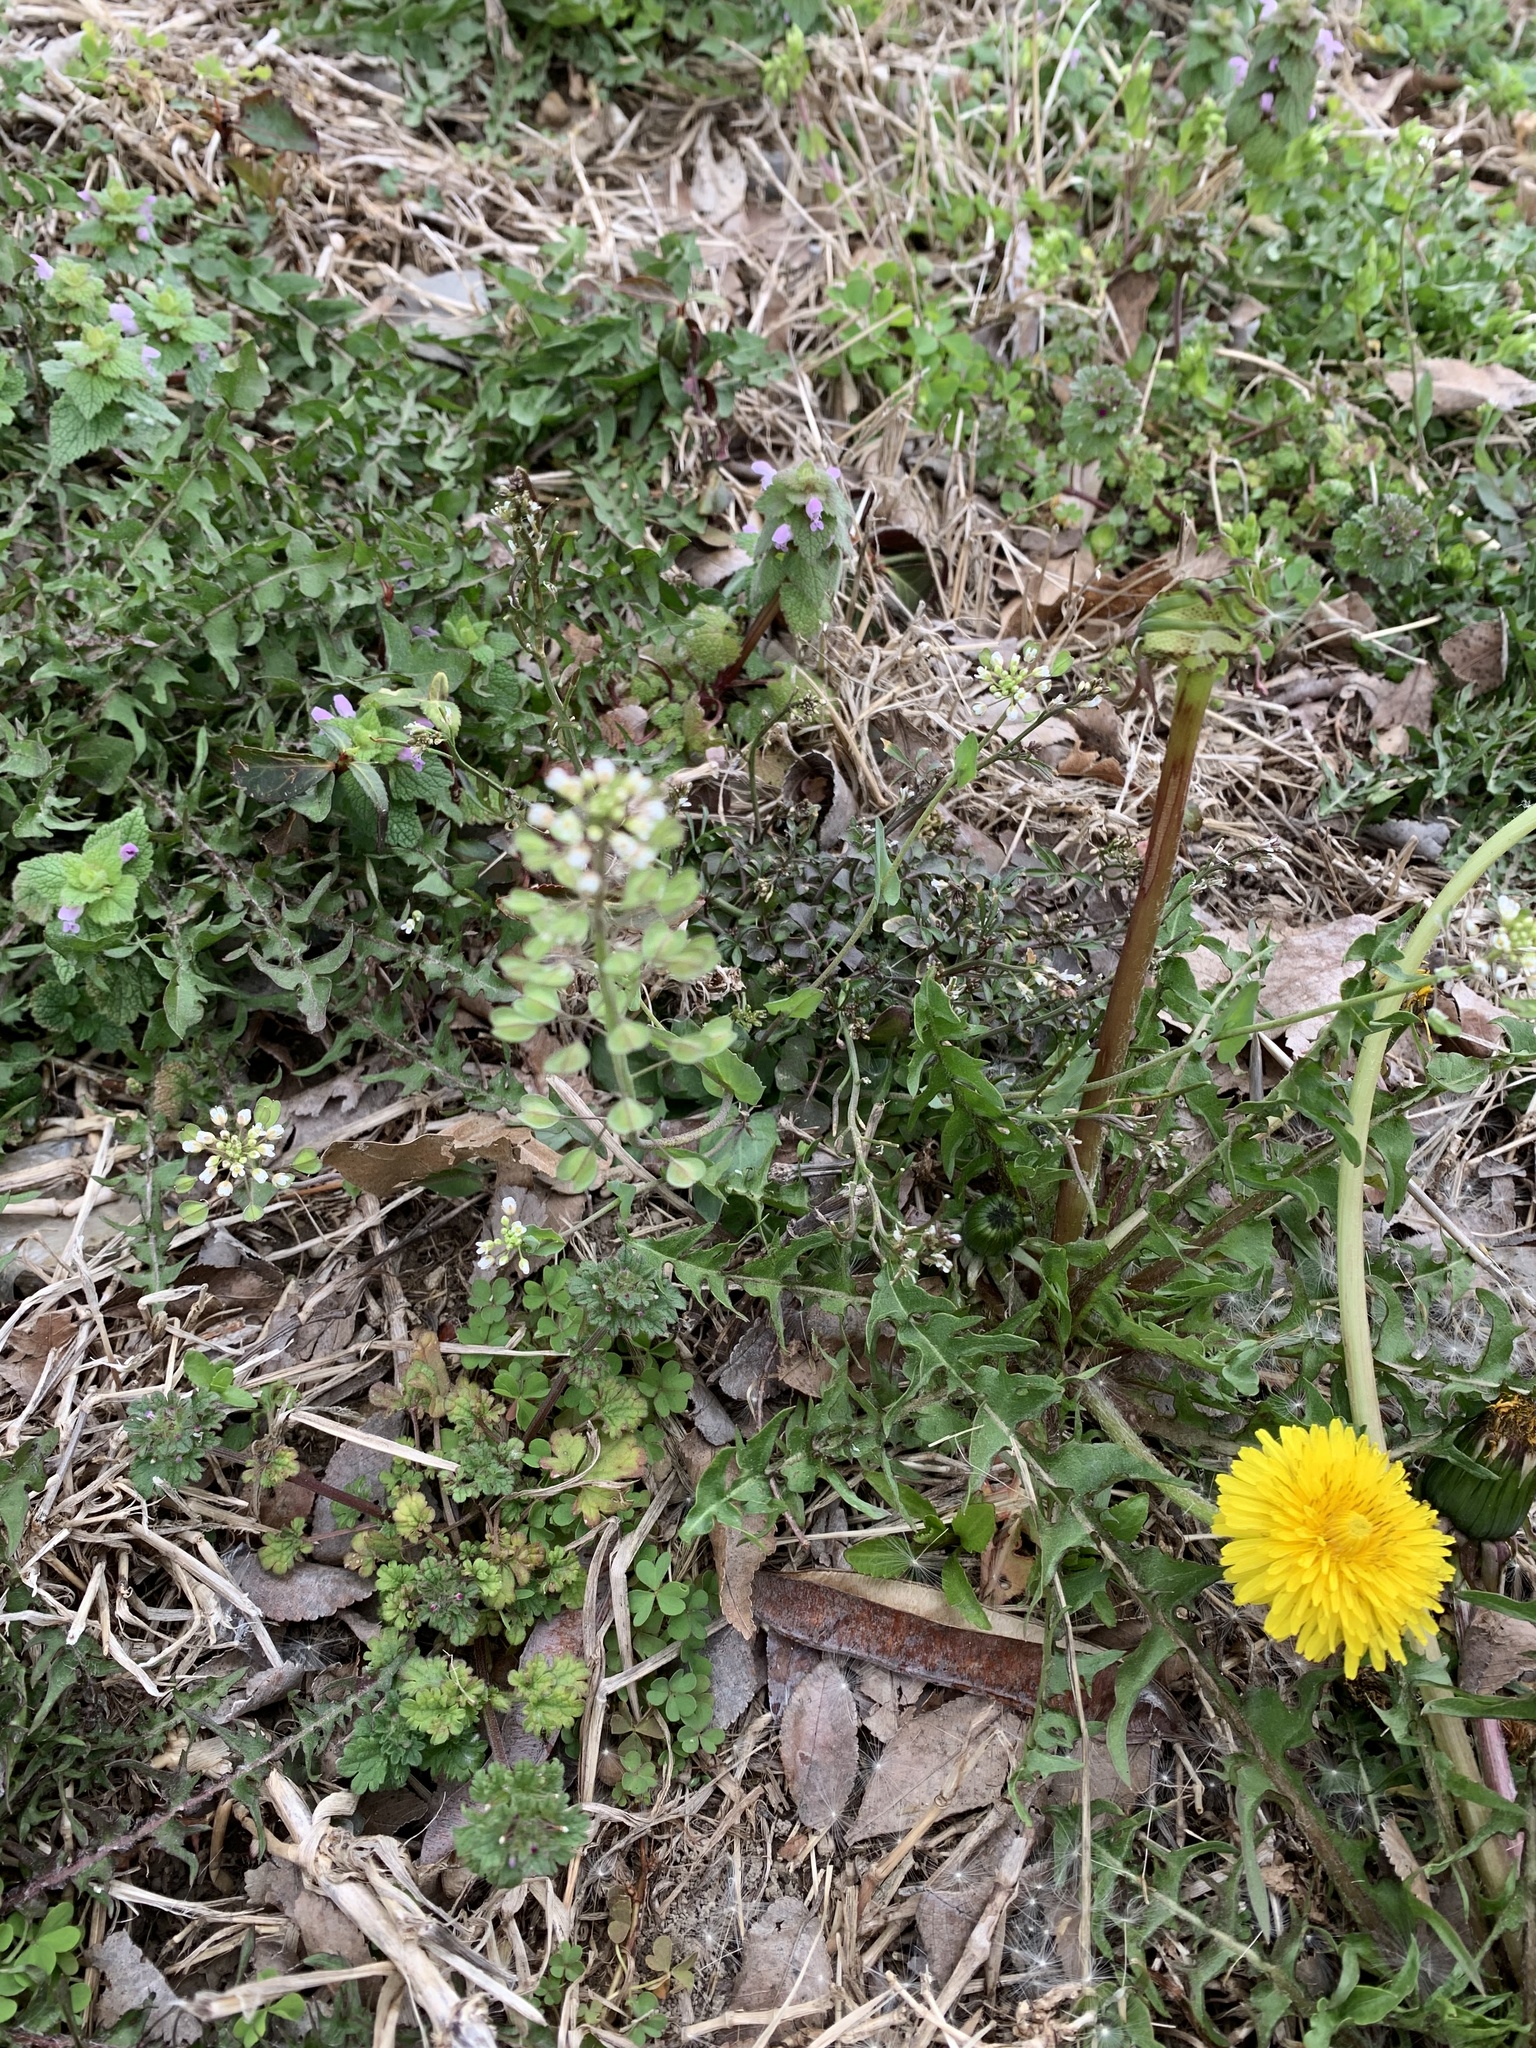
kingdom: Plantae
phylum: Tracheophyta
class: Magnoliopsida
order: Brassicales
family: Brassicaceae
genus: Noccaea
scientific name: Noccaea perfoliata
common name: Perfoliate pennycress
